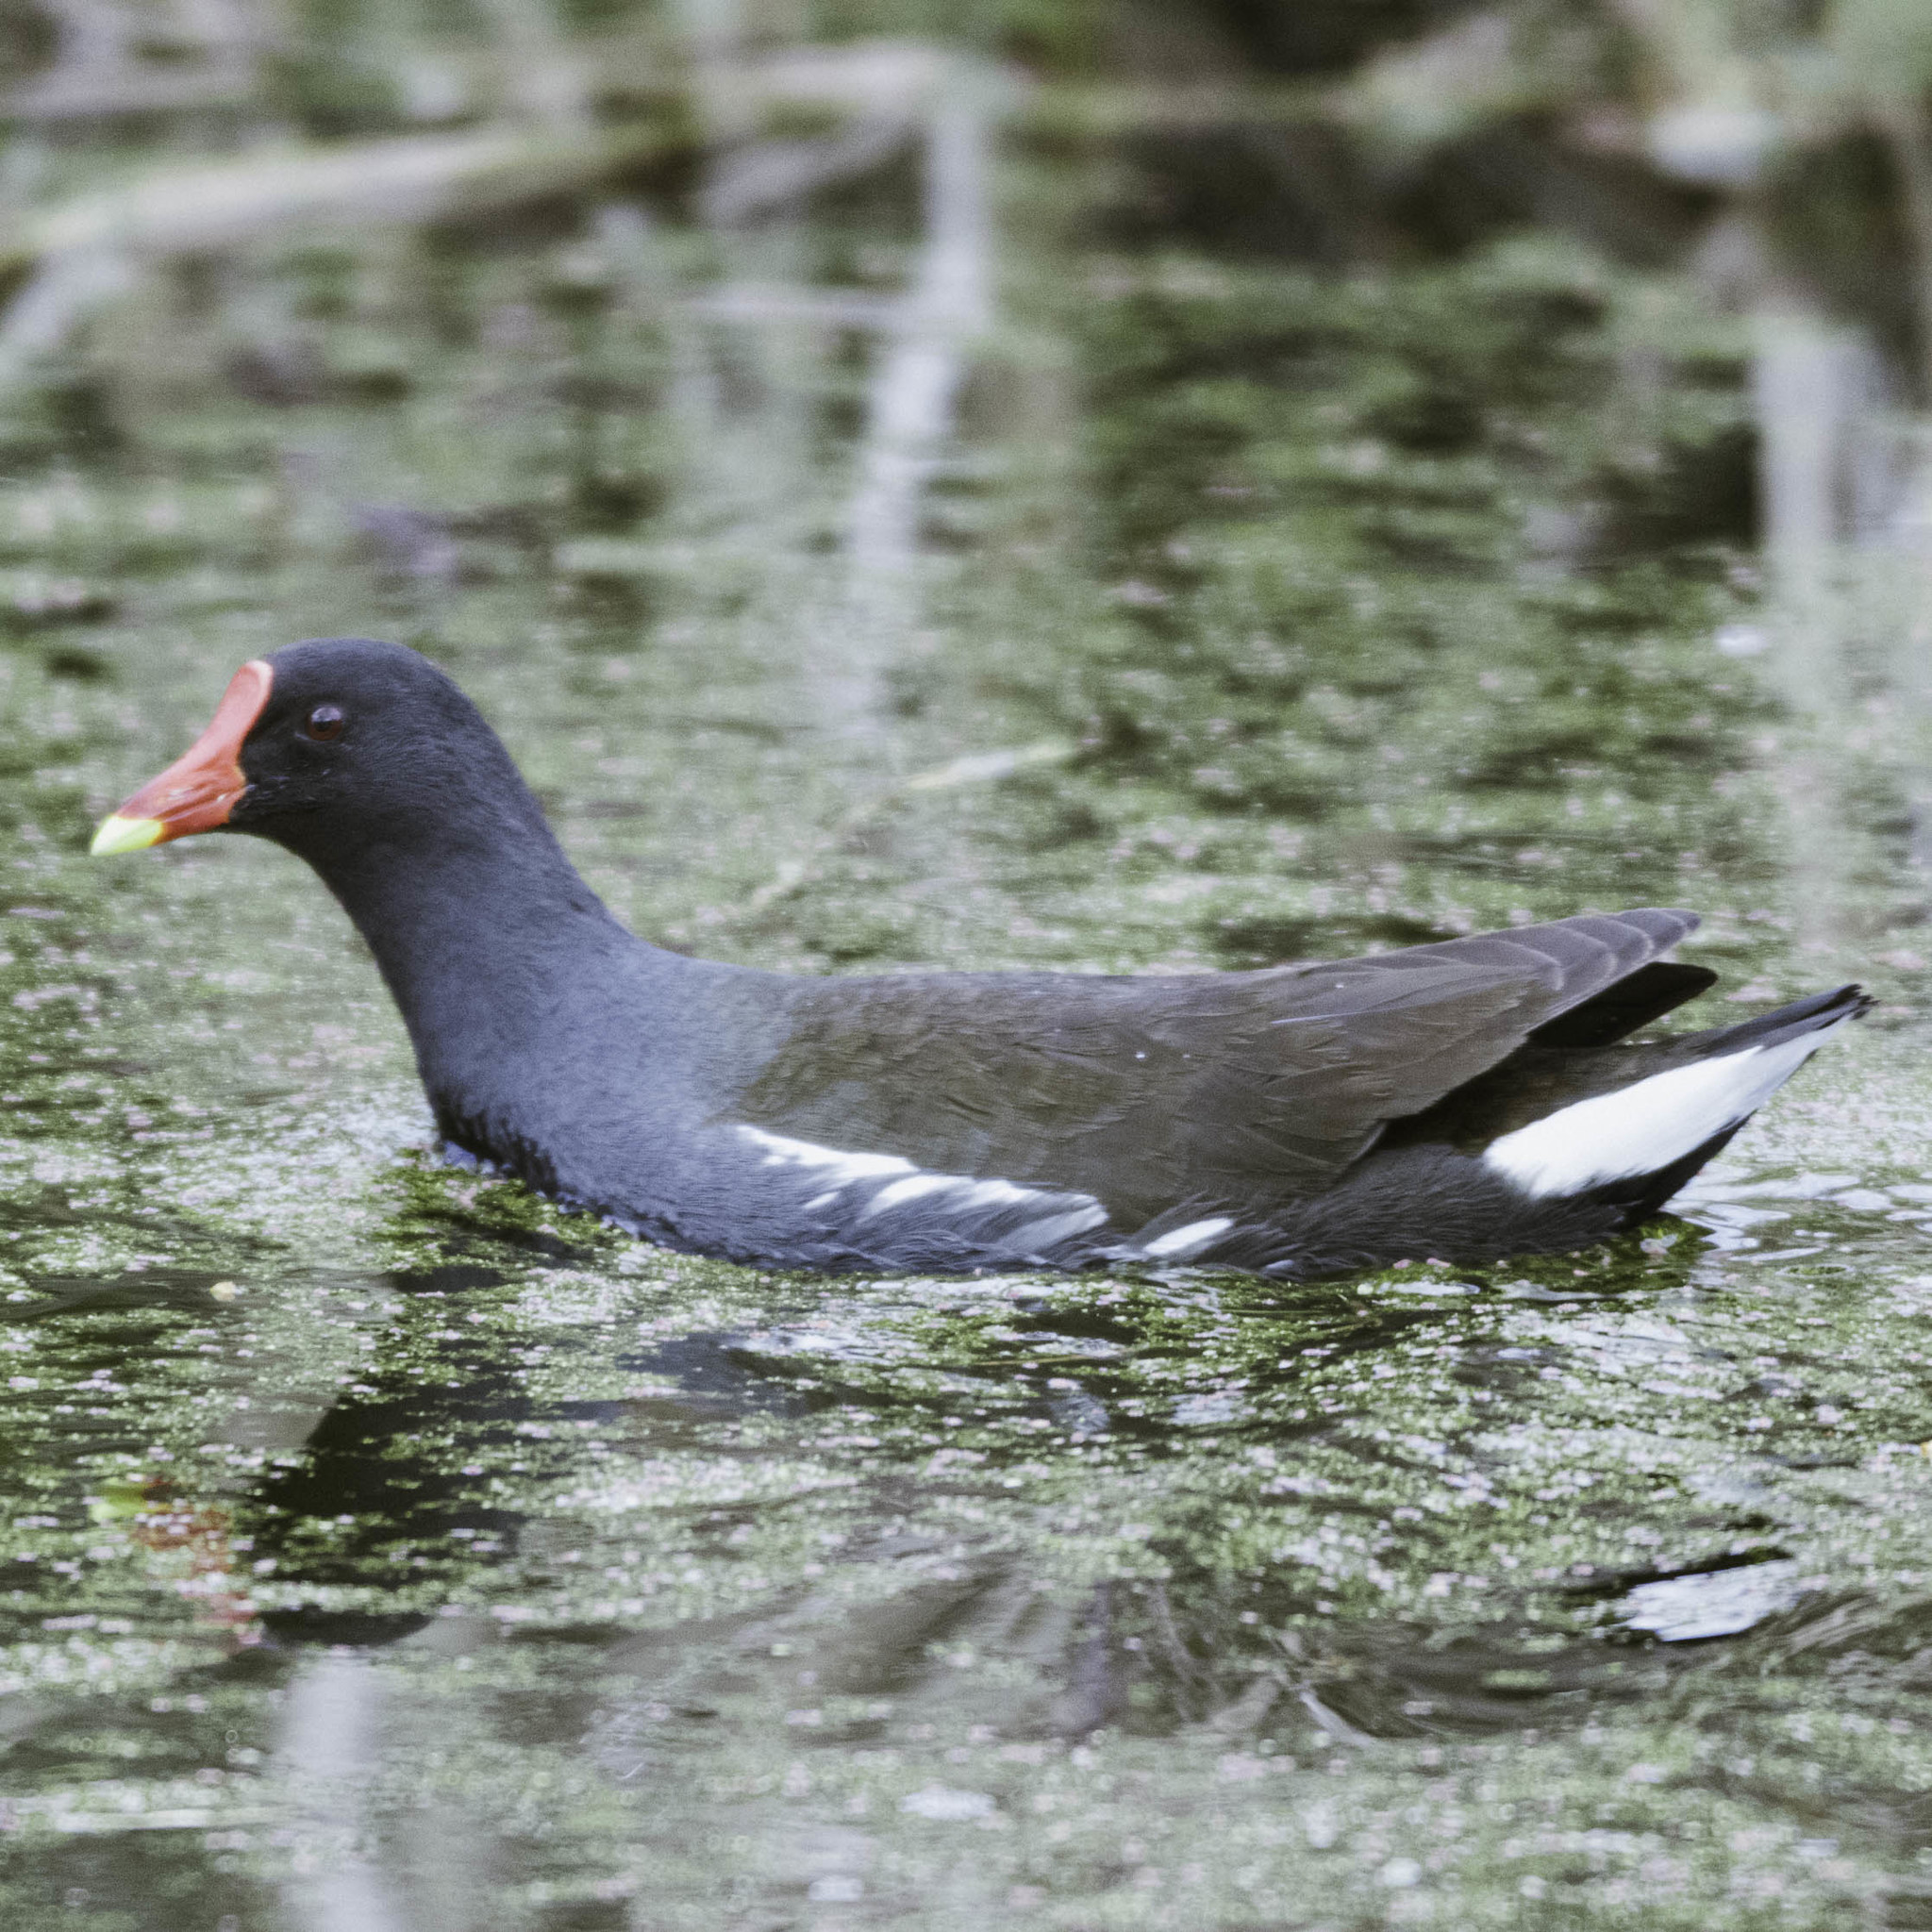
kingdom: Animalia
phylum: Chordata
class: Aves
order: Gruiformes
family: Rallidae
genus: Gallinula
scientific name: Gallinula chloropus
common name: Common moorhen
